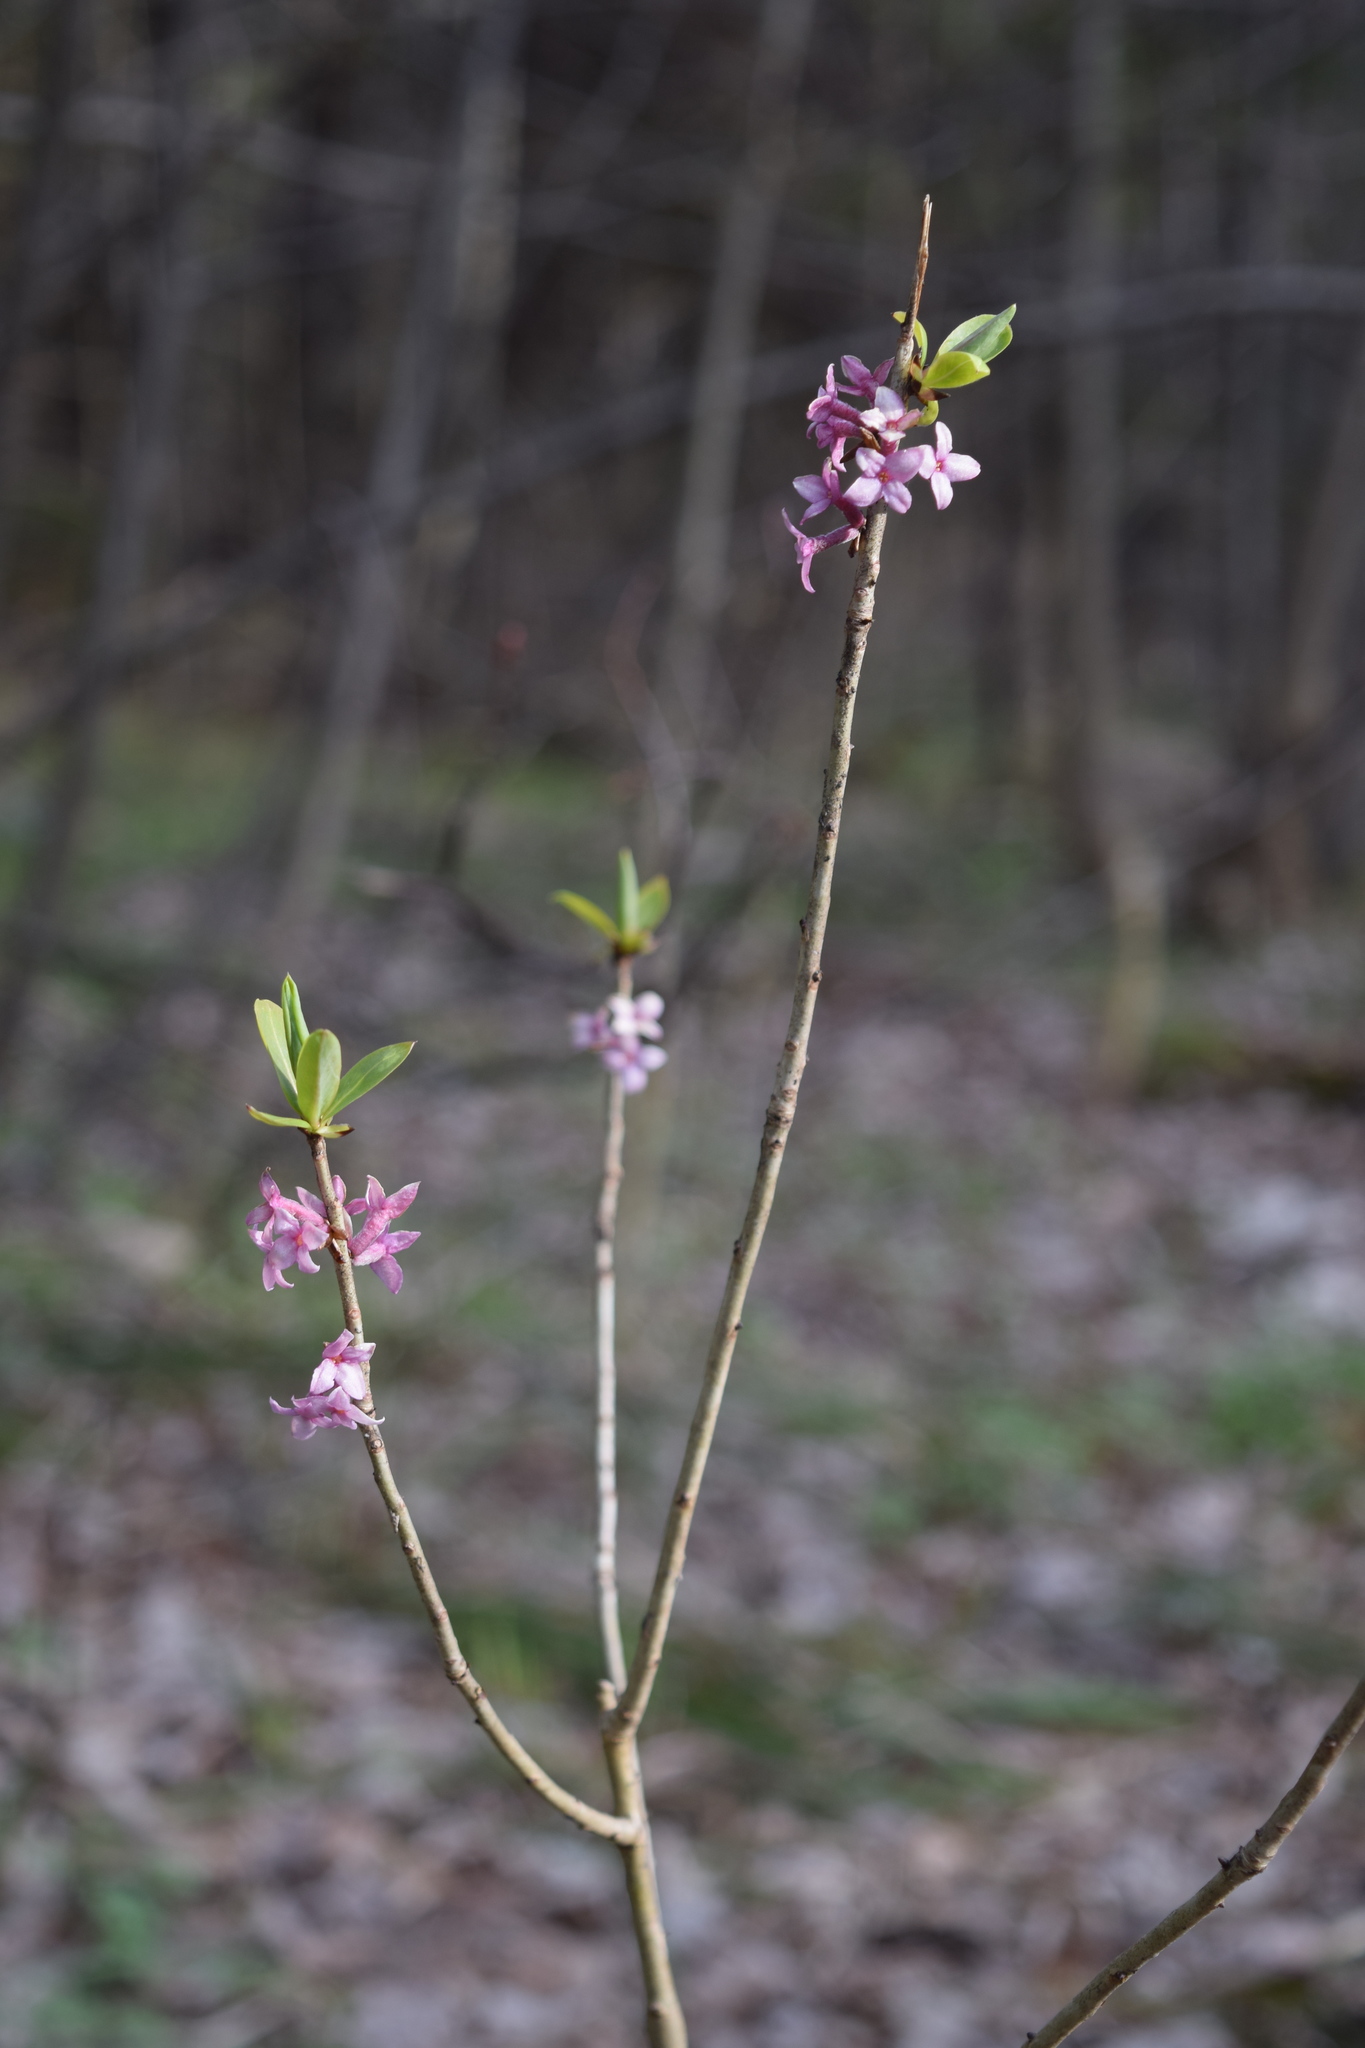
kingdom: Plantae
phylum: Tracheophyta
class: Magnoliopsida
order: Malvales
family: Thymelaeaceae
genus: Daphne
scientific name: Daphne mezereum
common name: Mezereon
